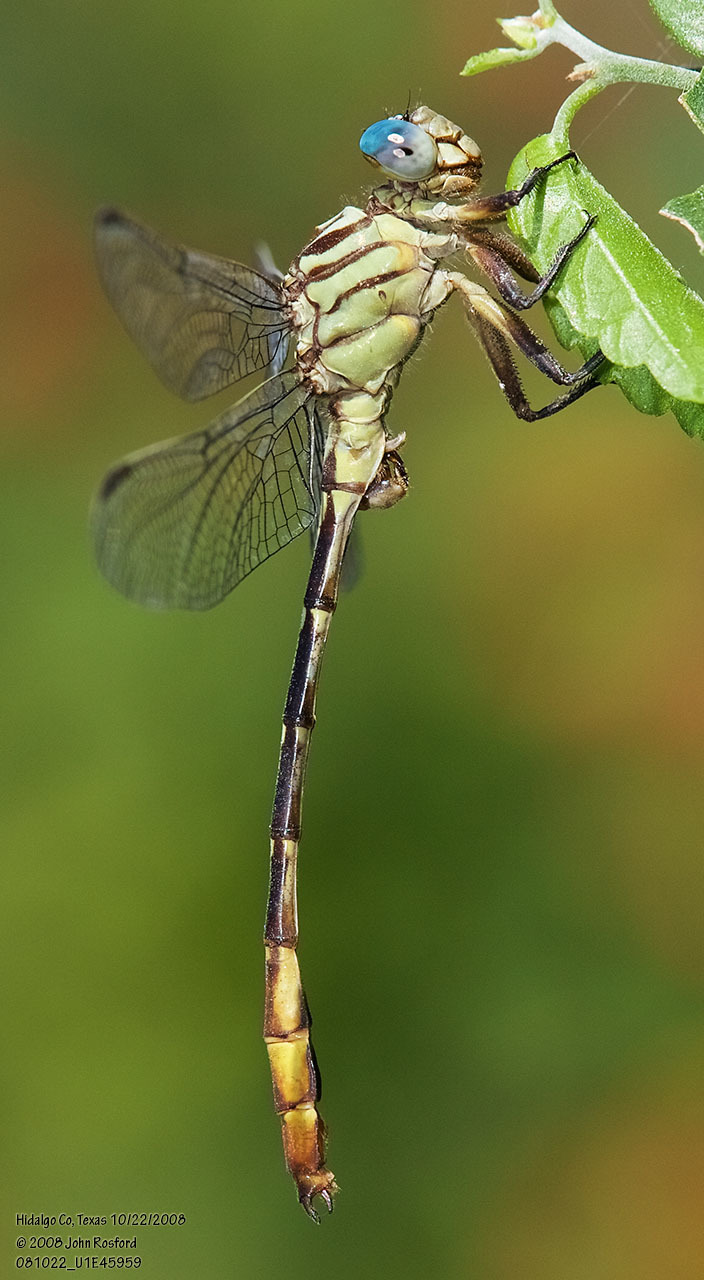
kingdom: Animalia
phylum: Arthropoda
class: Insecta
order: Odonata
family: Gomphidae
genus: Stylurus
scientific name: Stylurus plagiatus
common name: Russet-tipped clubtail
